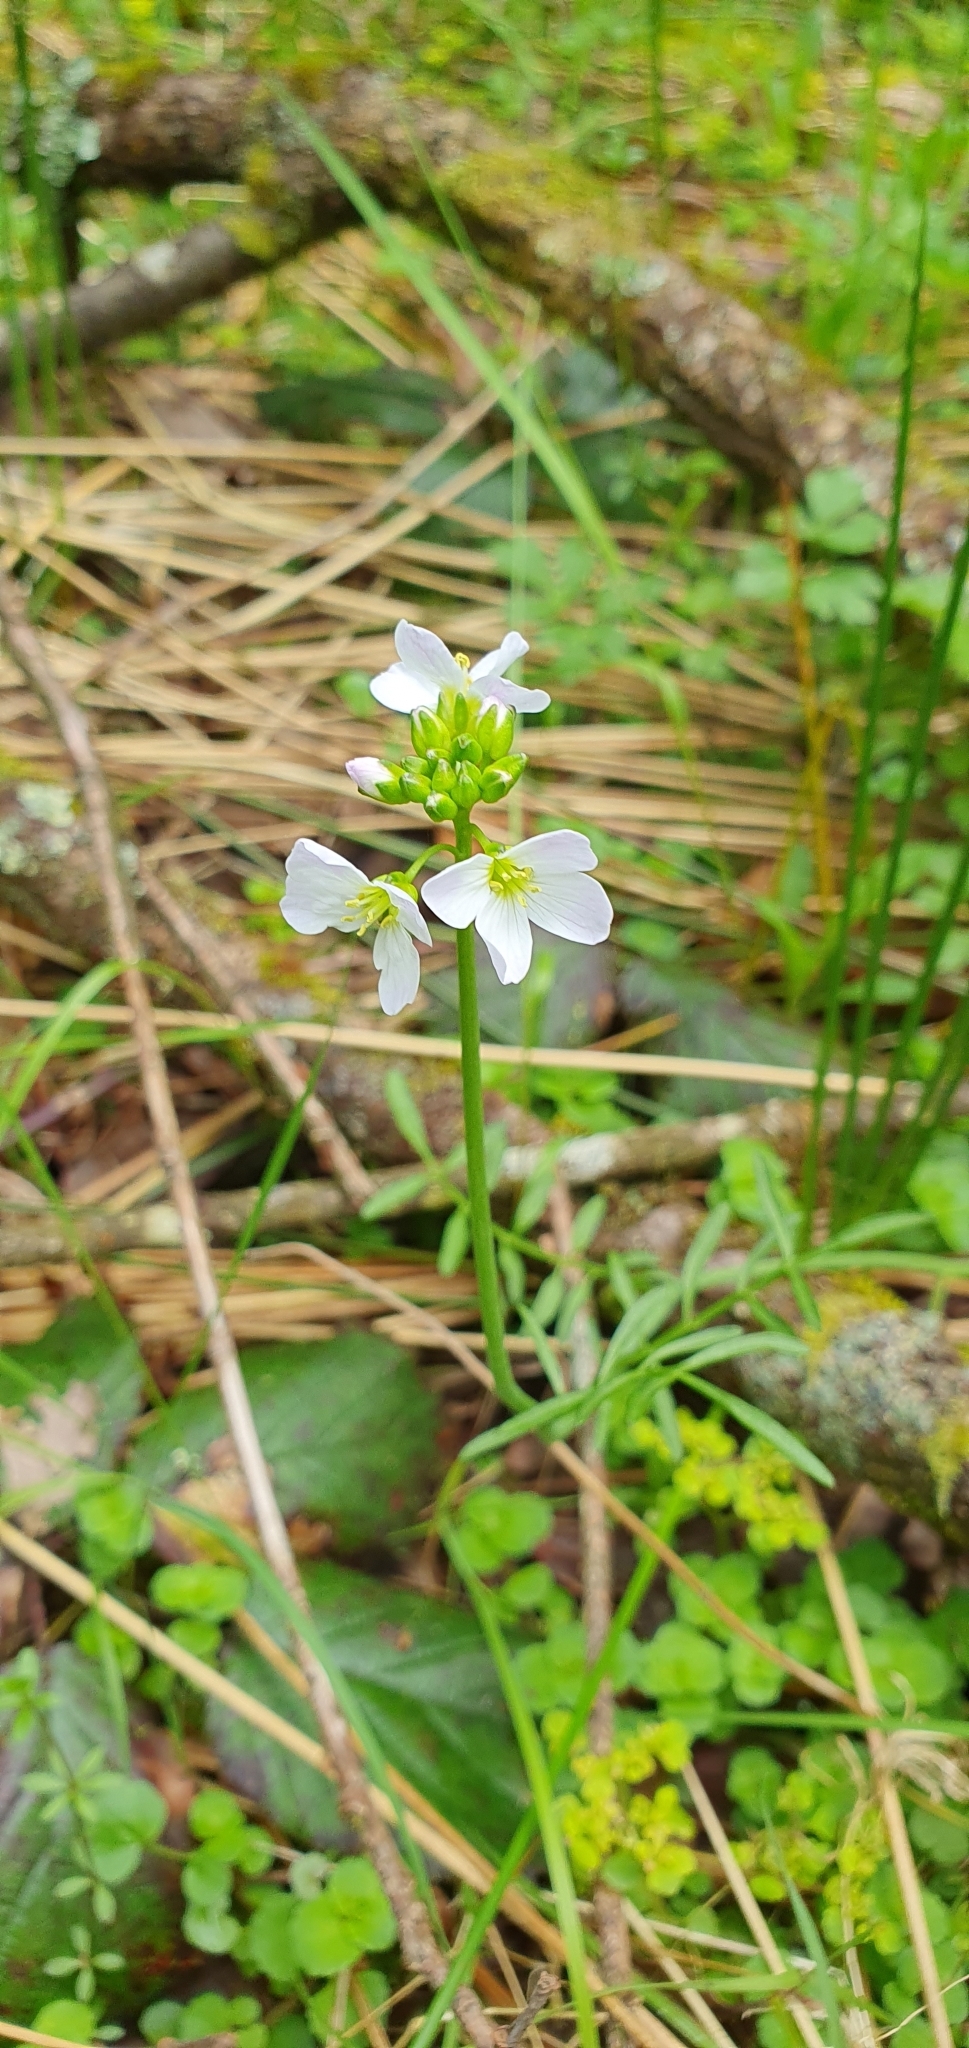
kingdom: Plantae
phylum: Tracheophyta
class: Magnoliopsida
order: Brassicales
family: Brassicaceae
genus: Cardamine
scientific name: Cardamine pratensis
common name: Cuckoo flower
